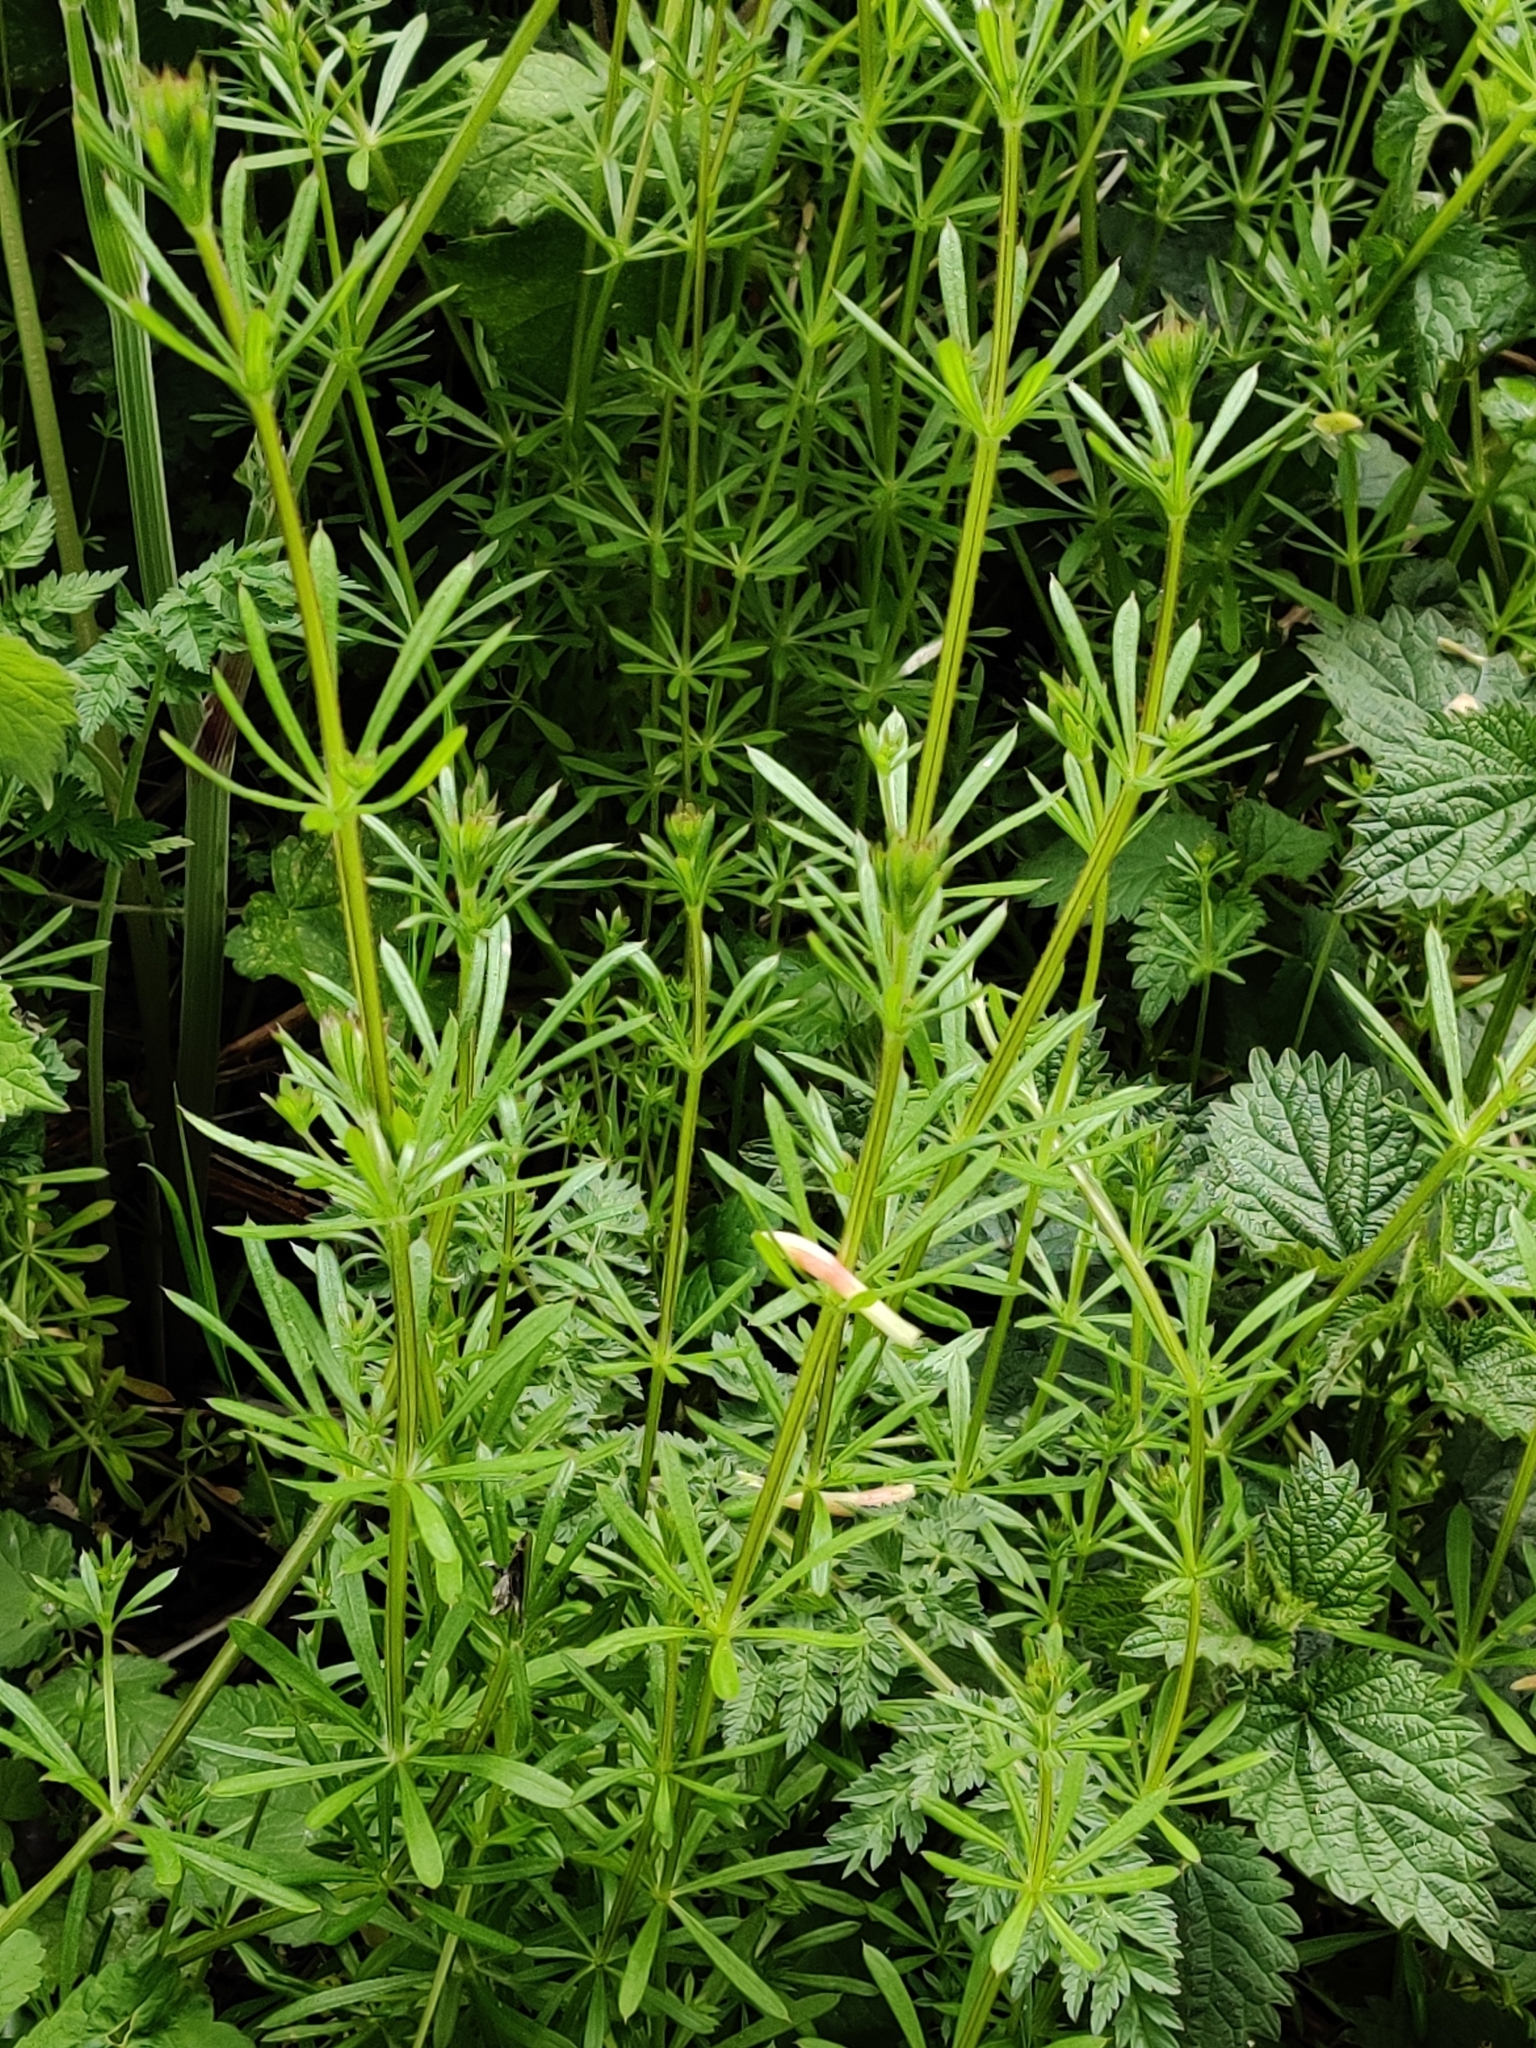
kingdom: Plantae
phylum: Tracheophyta
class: Magnoliopsida
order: Gentianales
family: Rubiaceae
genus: Galium
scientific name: Galium aparine
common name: Cleavers
